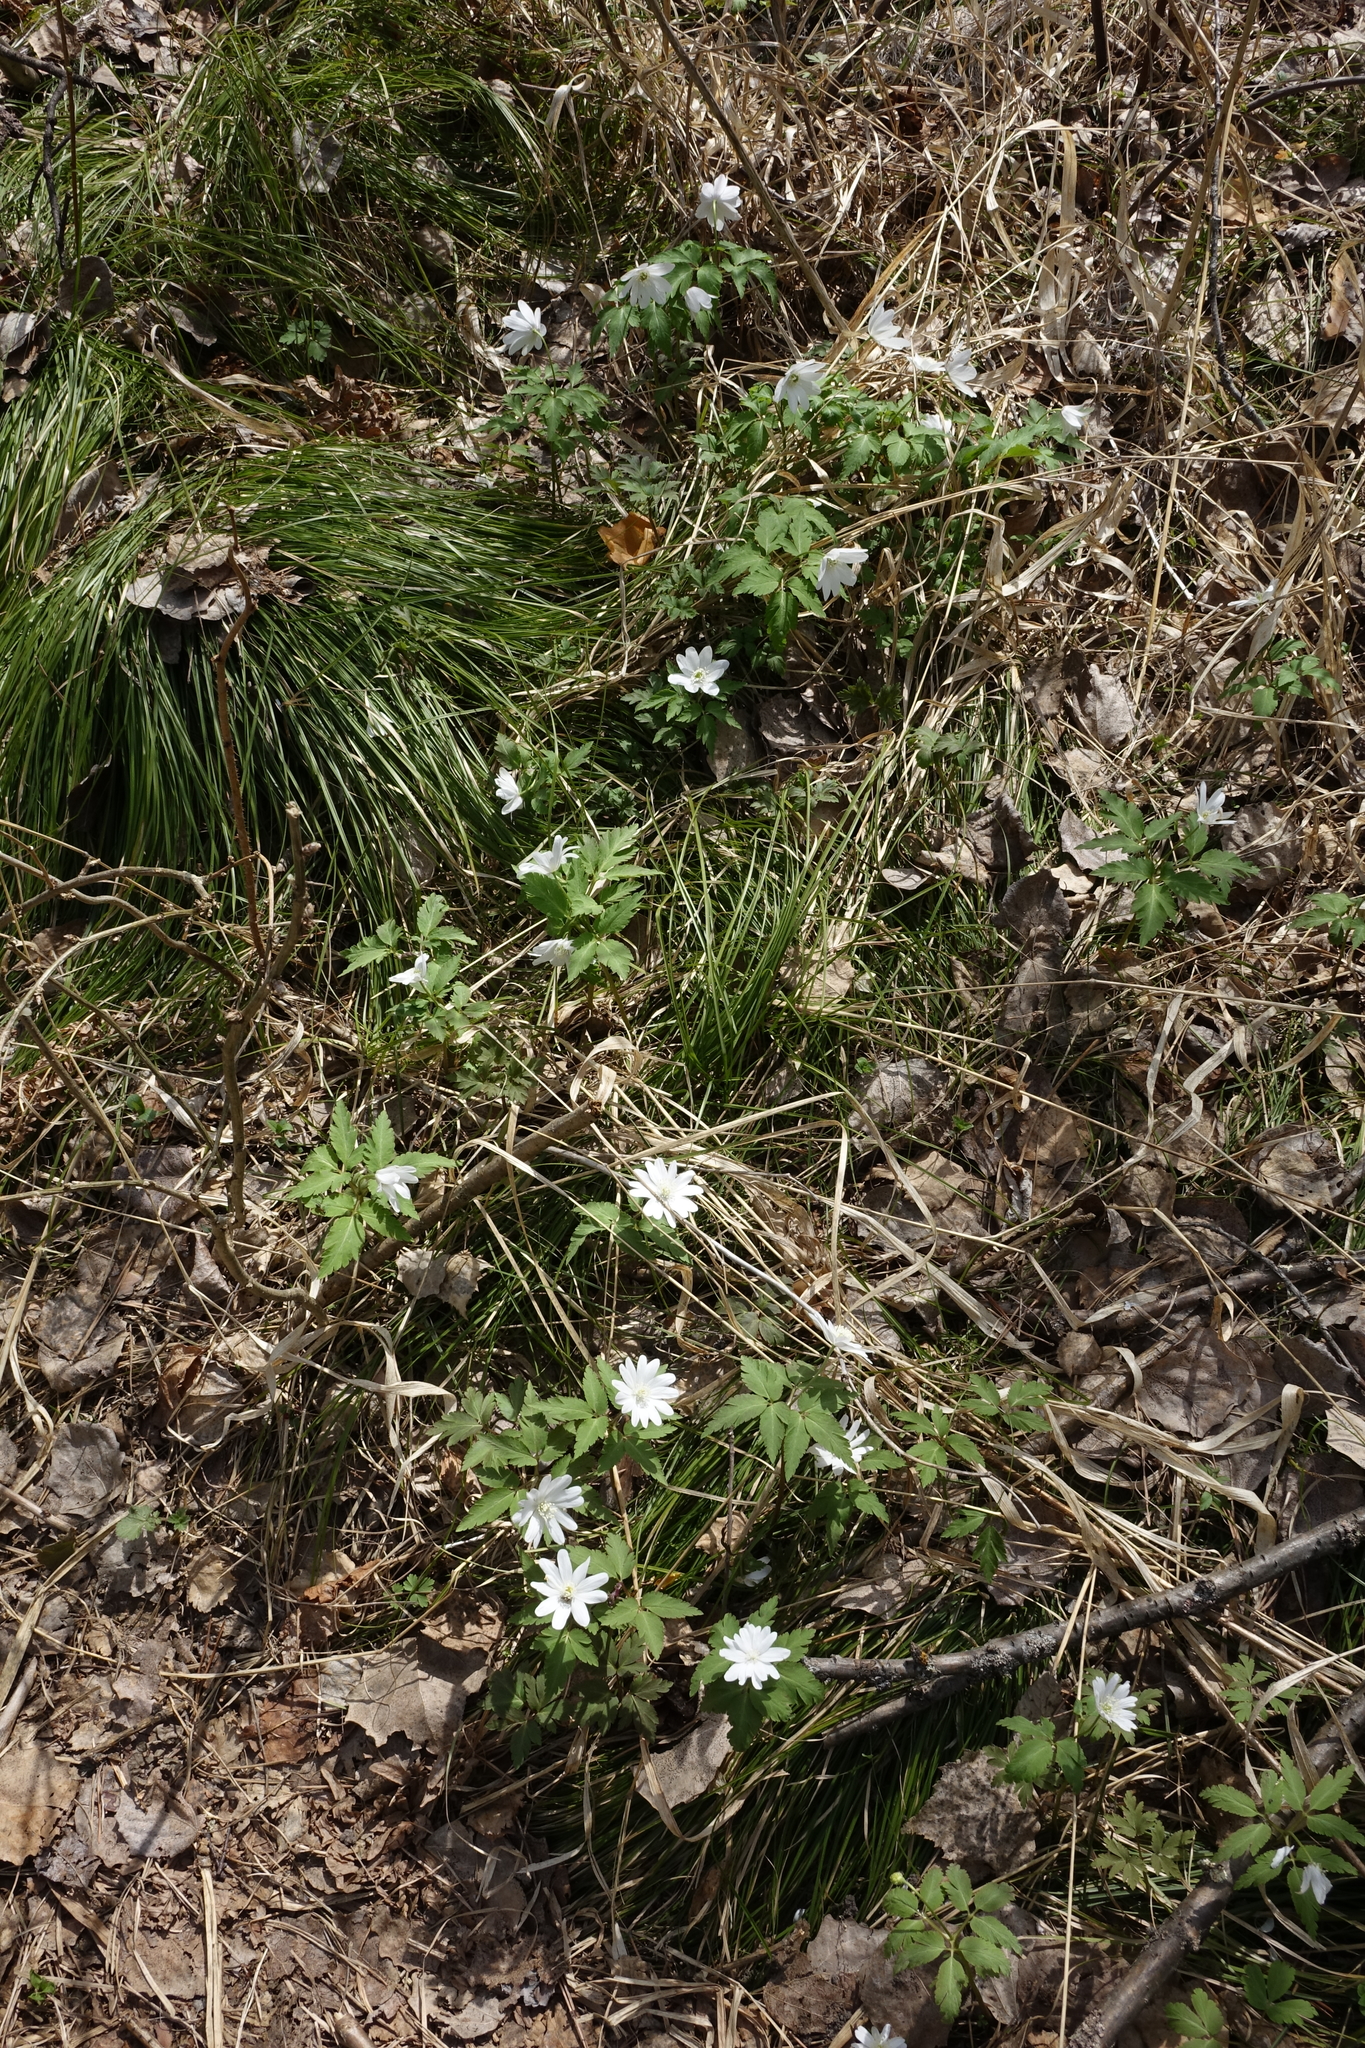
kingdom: Plantae
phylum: Tracheophyta
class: Magnoliopsida
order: Ranunculales
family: Ranunculaceae
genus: Anemone
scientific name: Anemone altaica
